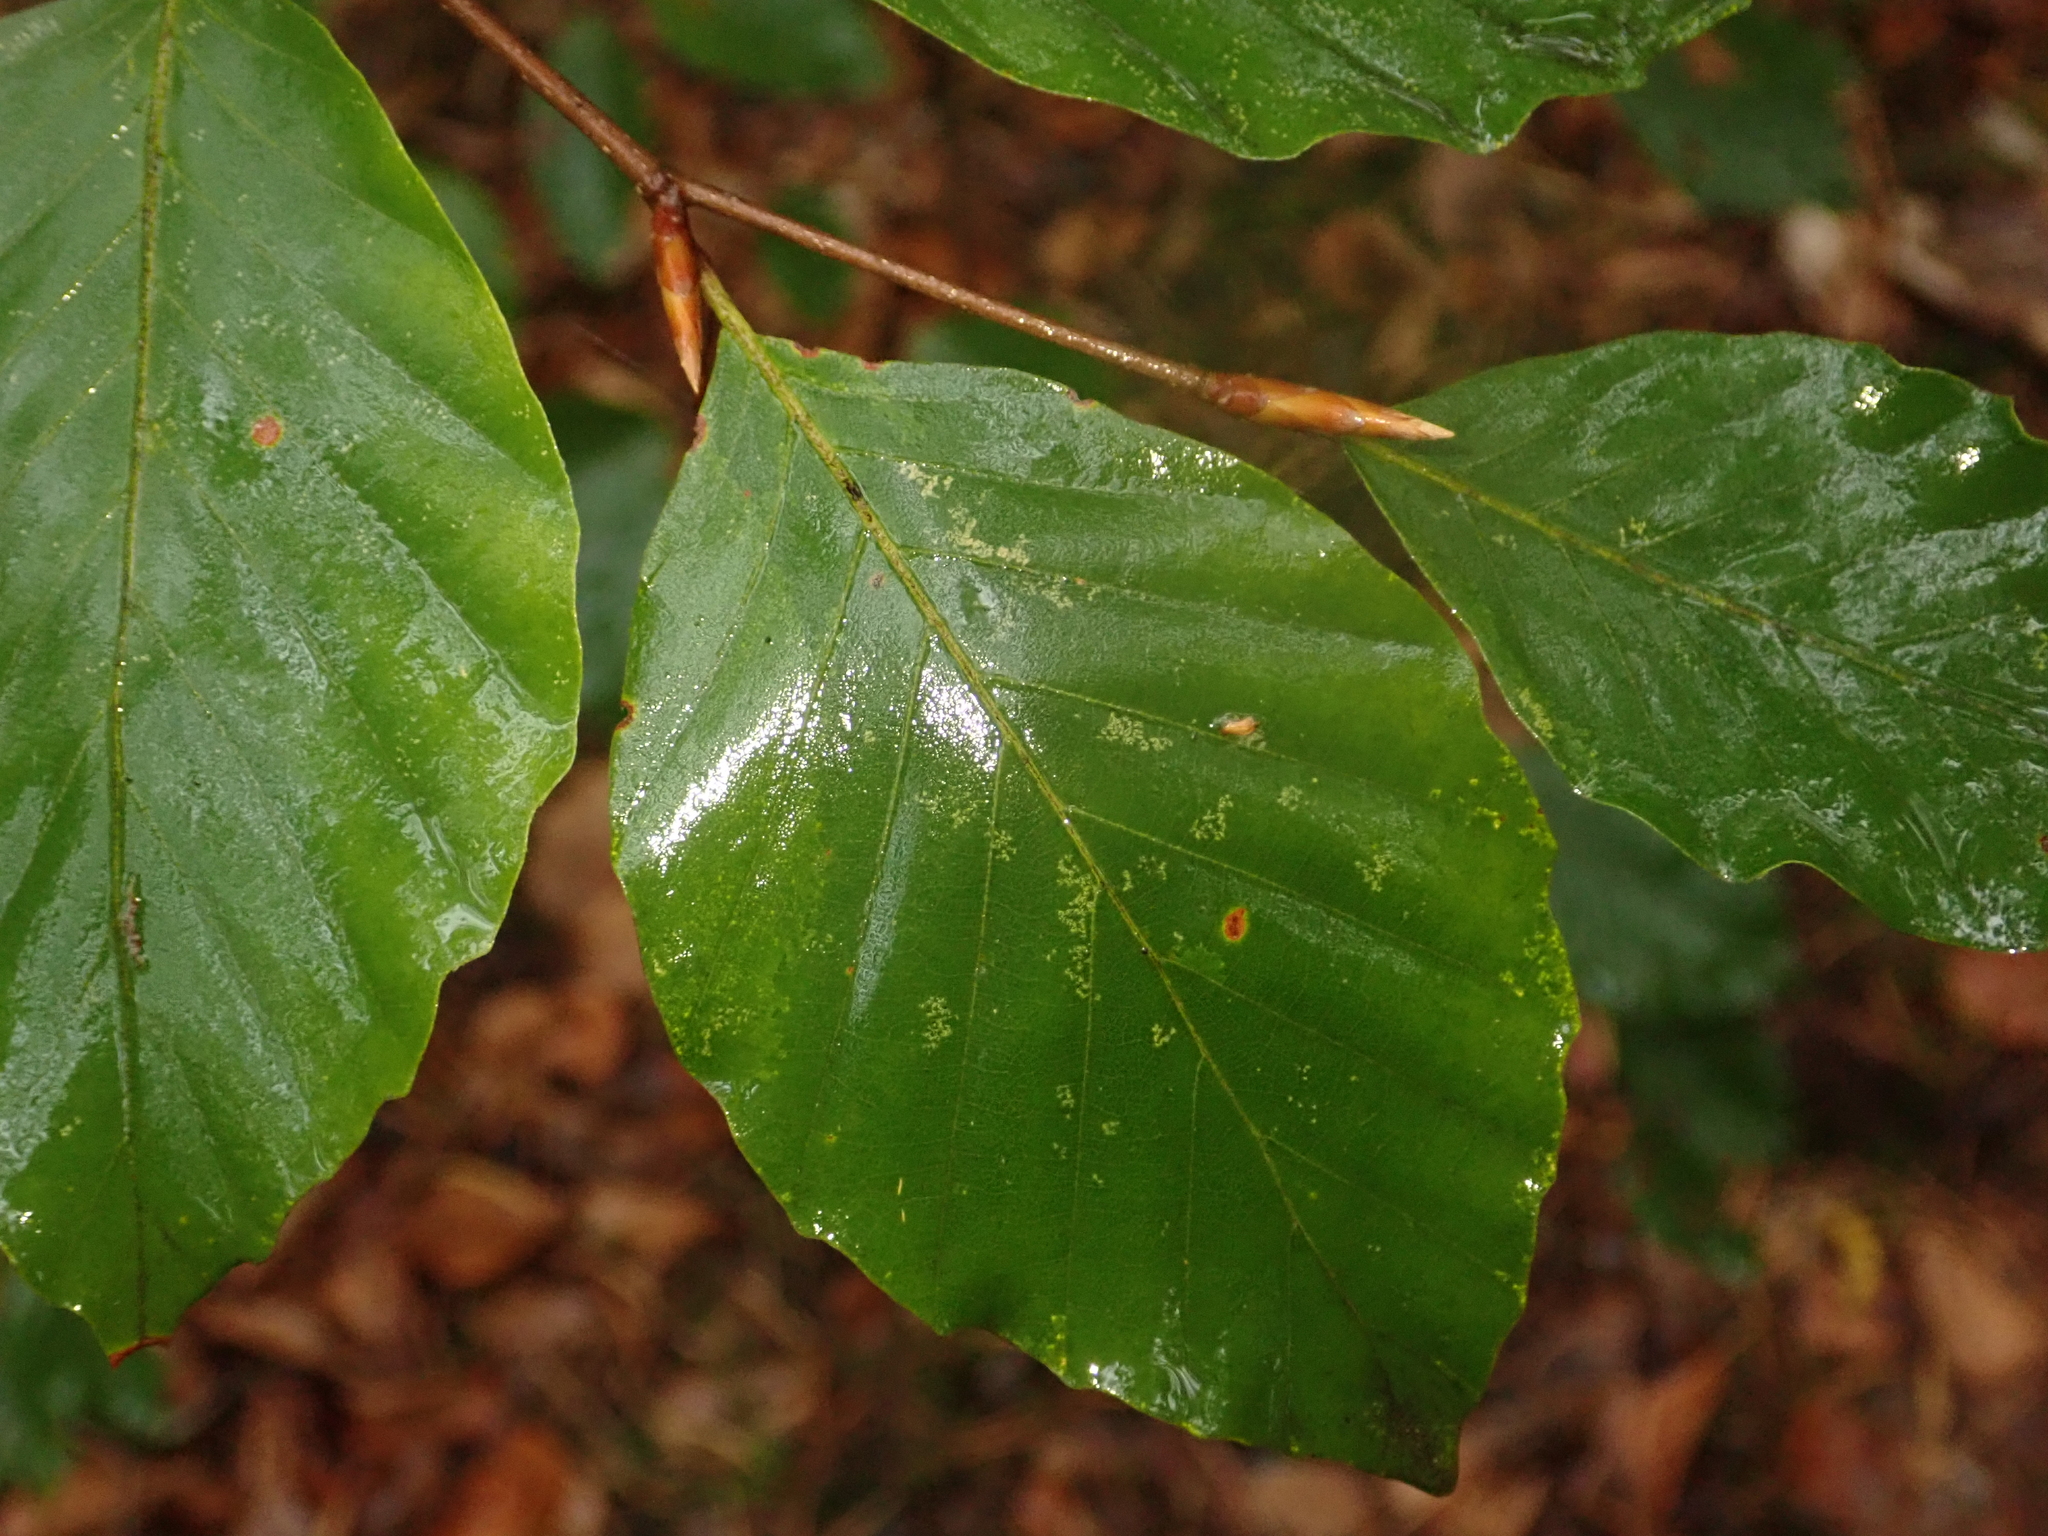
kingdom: Plantae
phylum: Tracheophyta
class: Magnoliopsida
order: Fagales
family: Fagaceae
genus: Fagus
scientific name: Fagus sylvatica
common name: Beech
